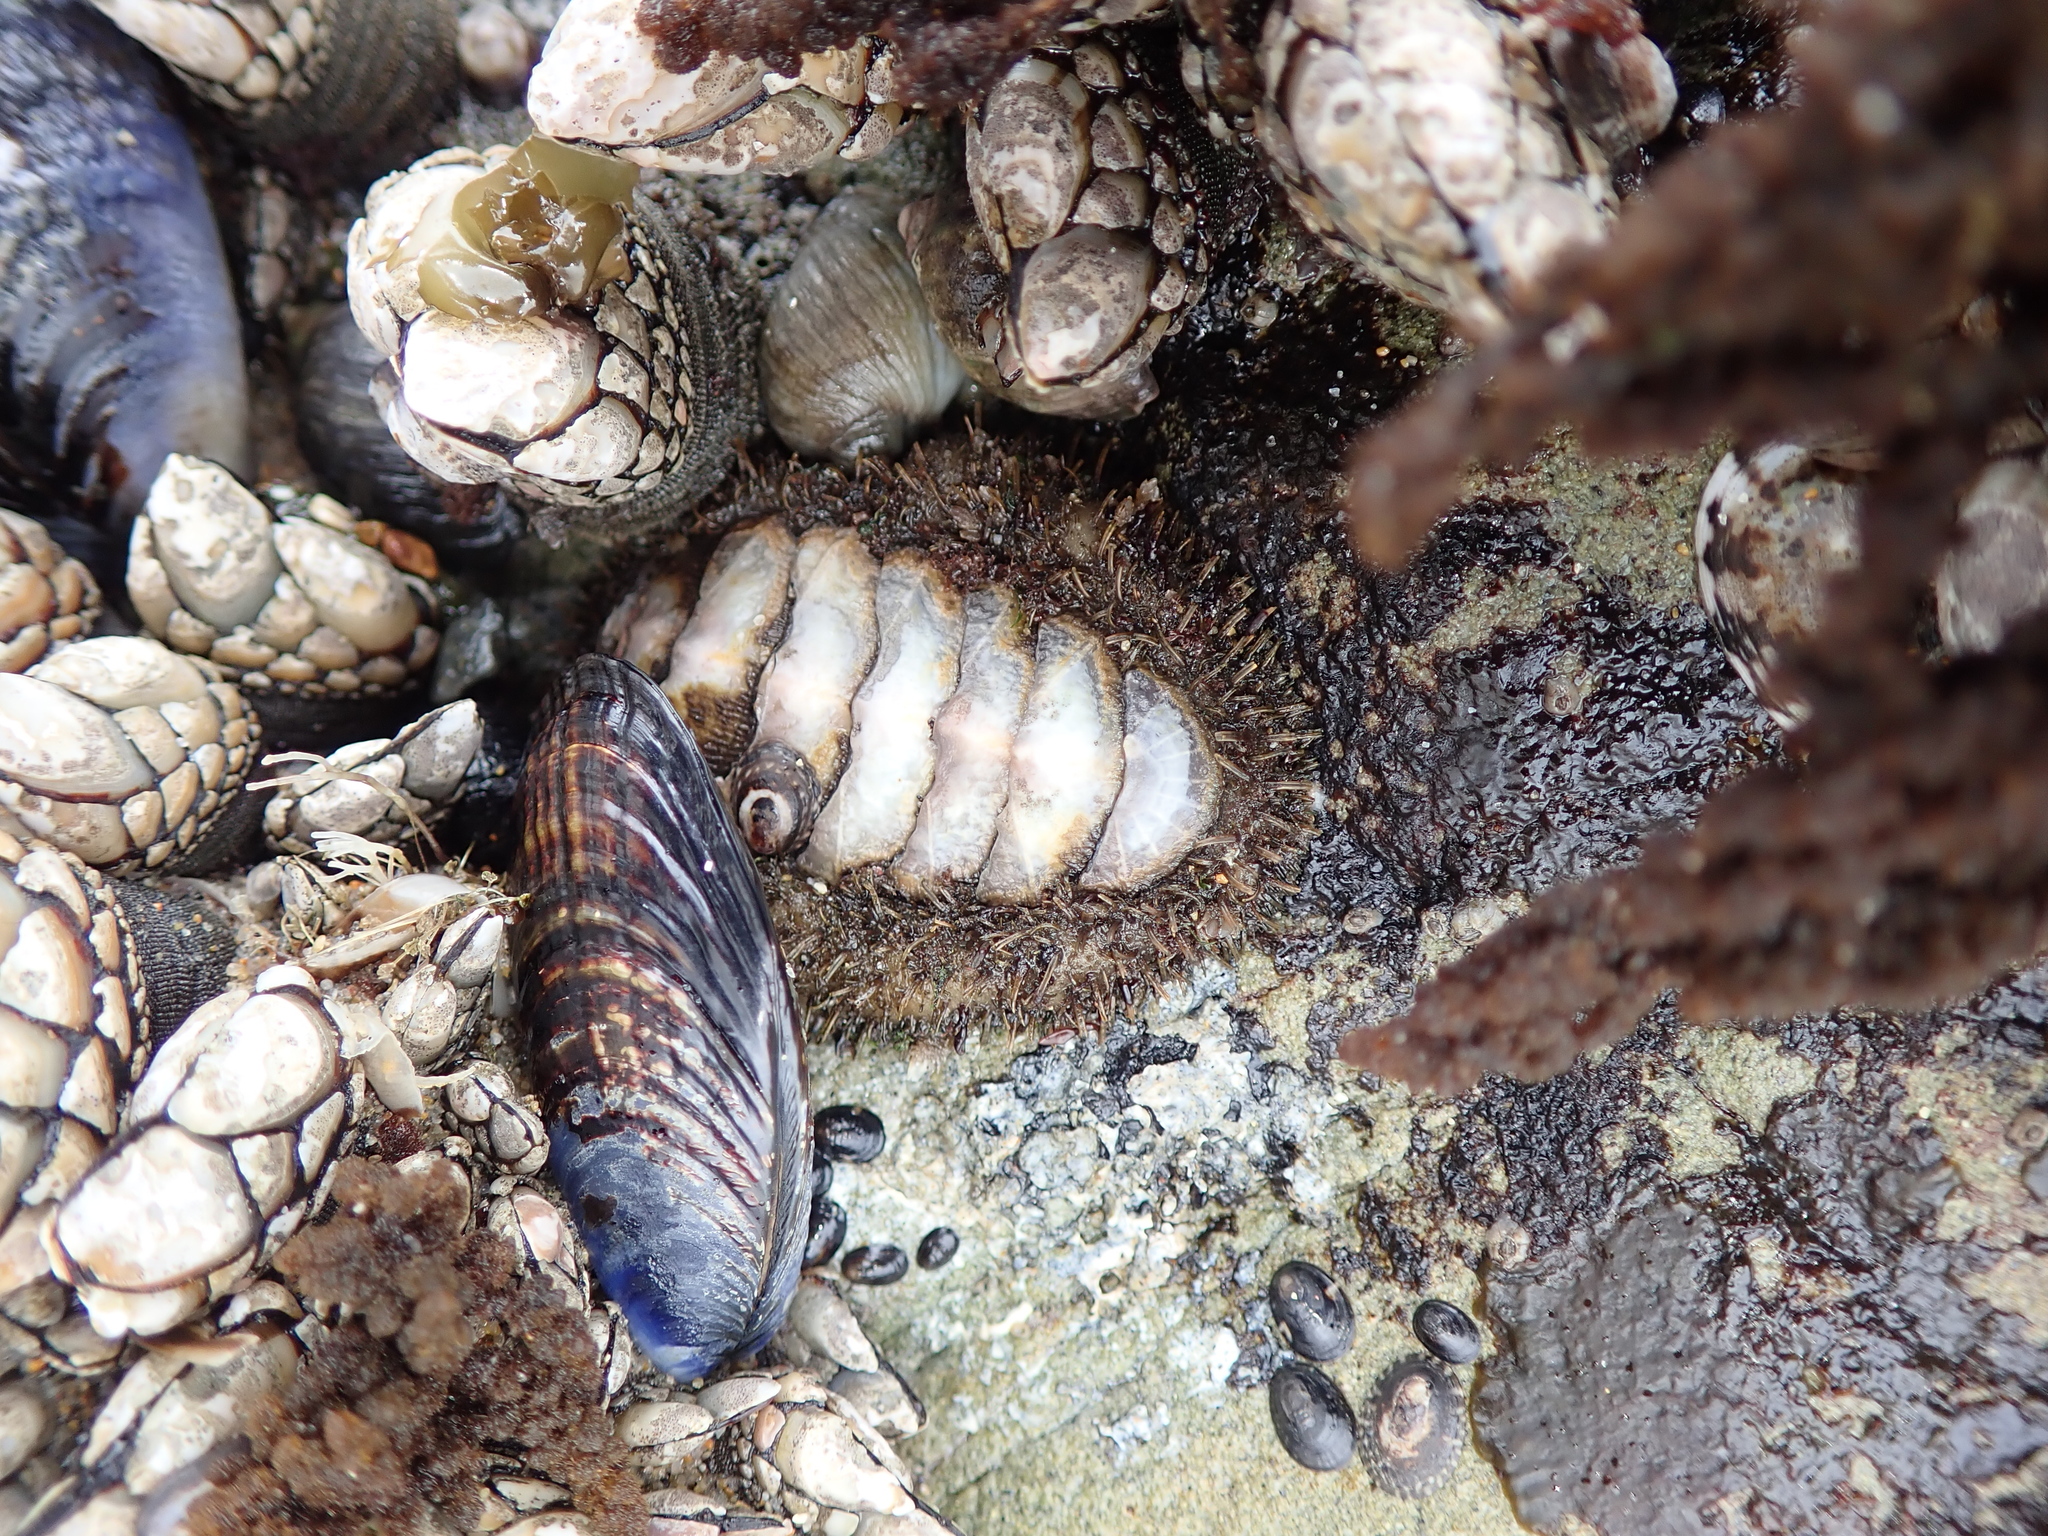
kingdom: Animalia
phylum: Mollusca
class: Polyplacophora
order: Chitonida
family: Mopaliidae
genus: Mopalia
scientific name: Mopalia muscosa
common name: Mossy chiton
